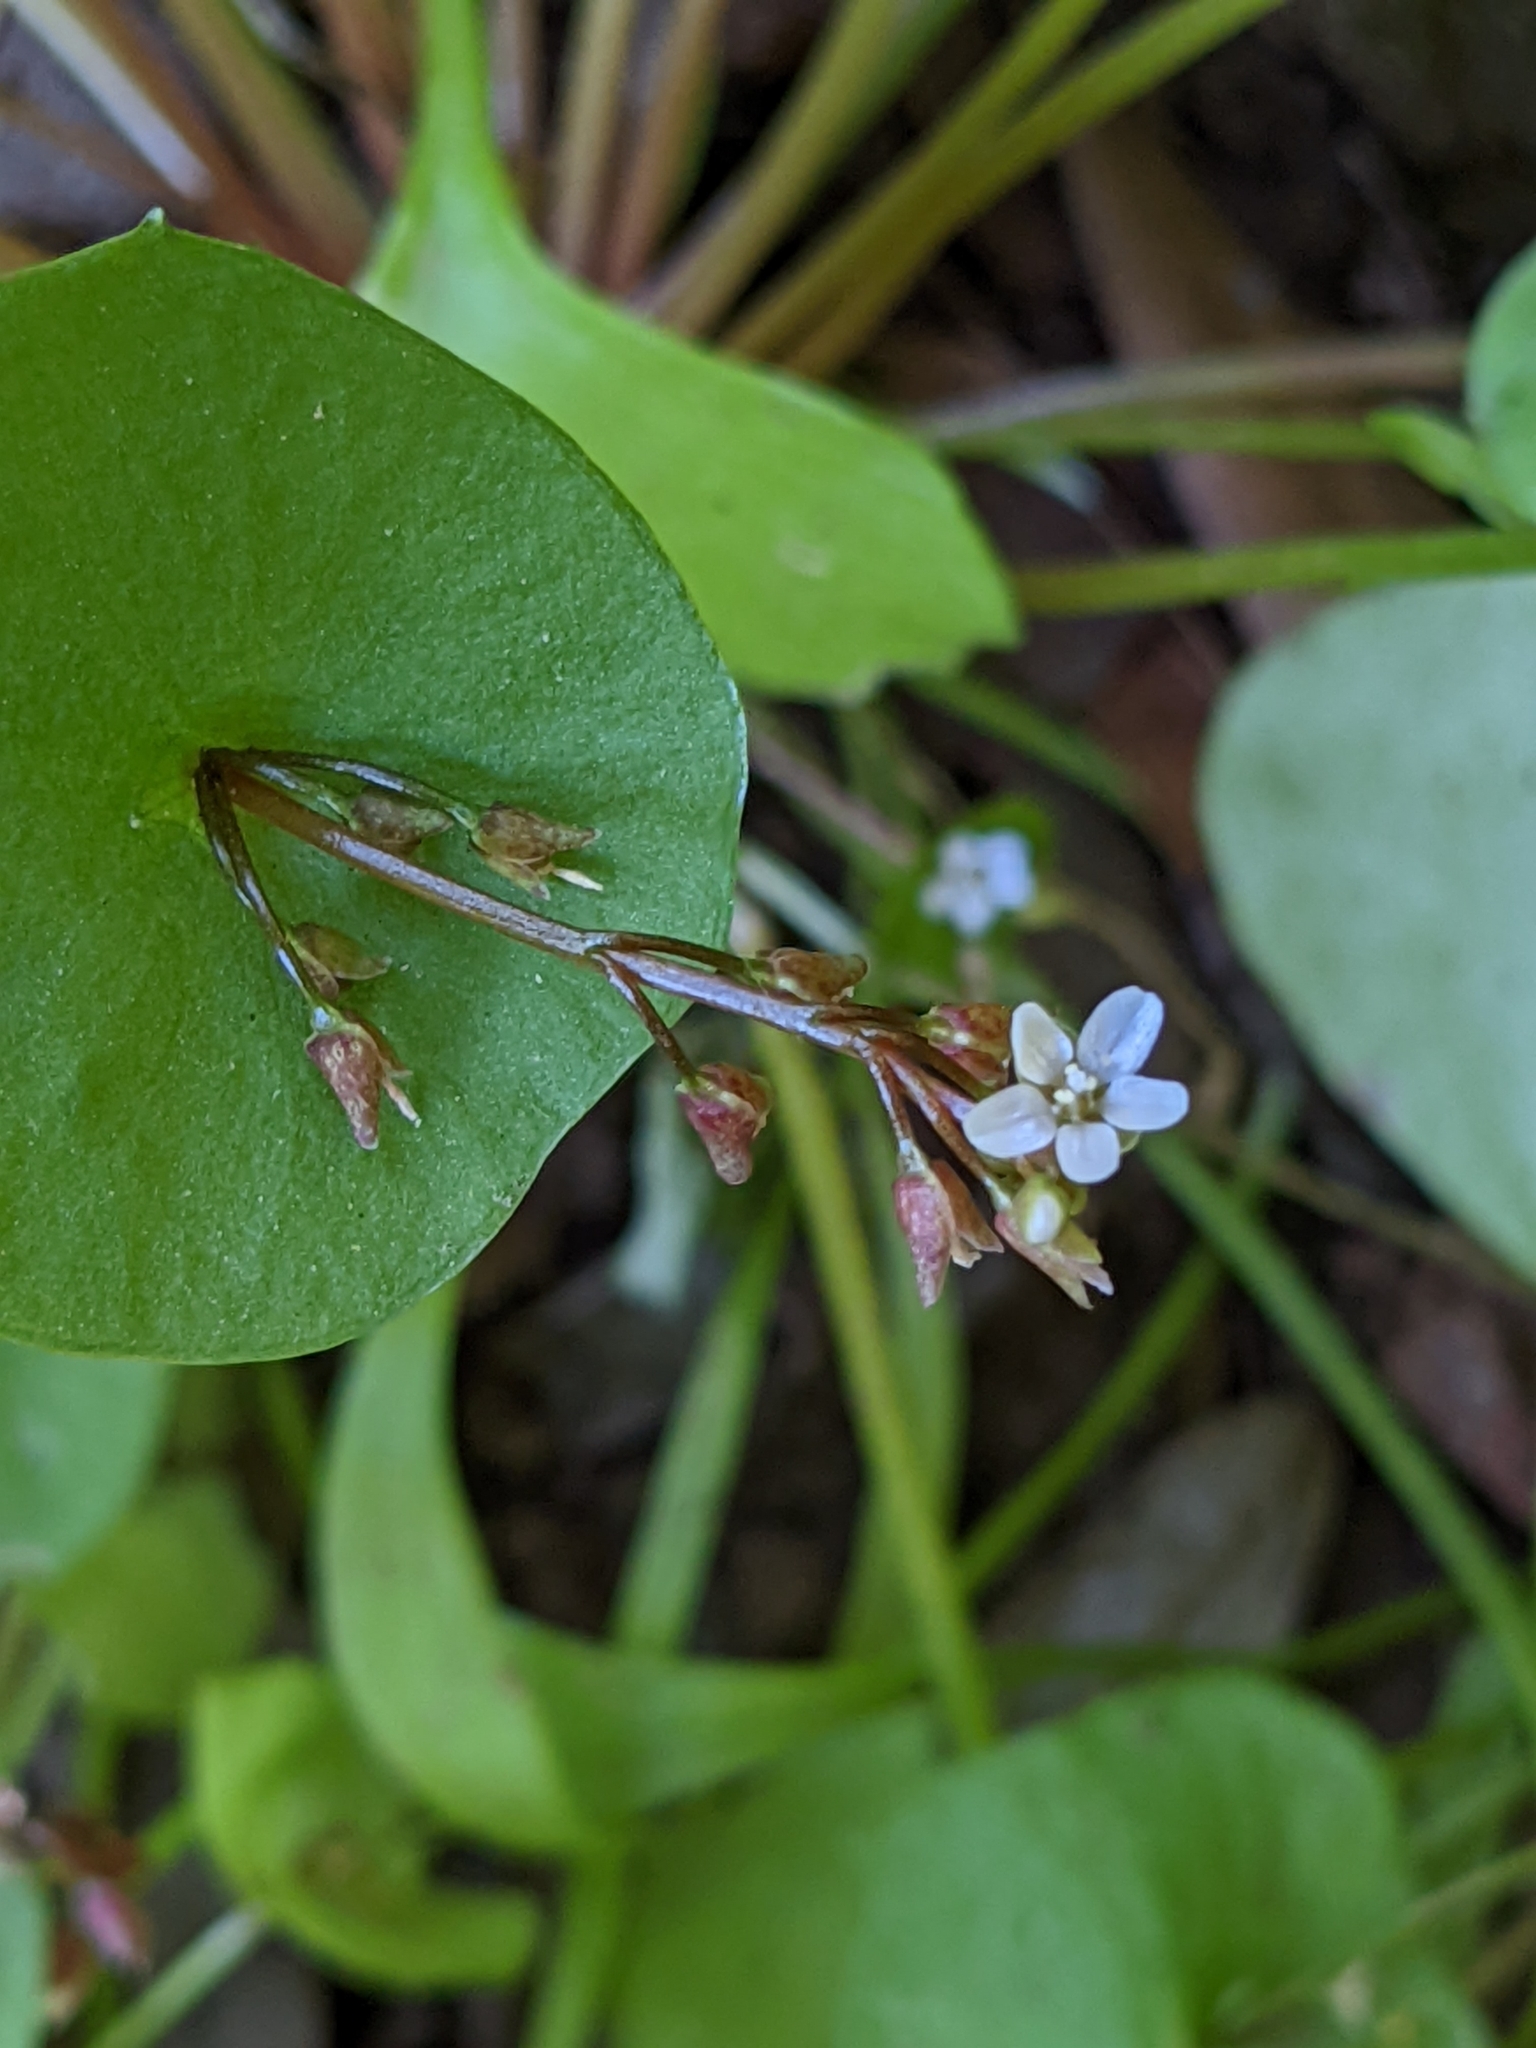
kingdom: Plantae
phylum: Tracheophyta
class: Magnoliopsida
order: Caryophyllales
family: Montiaceae
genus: Claytonia
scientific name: Claytonia perfoliata
